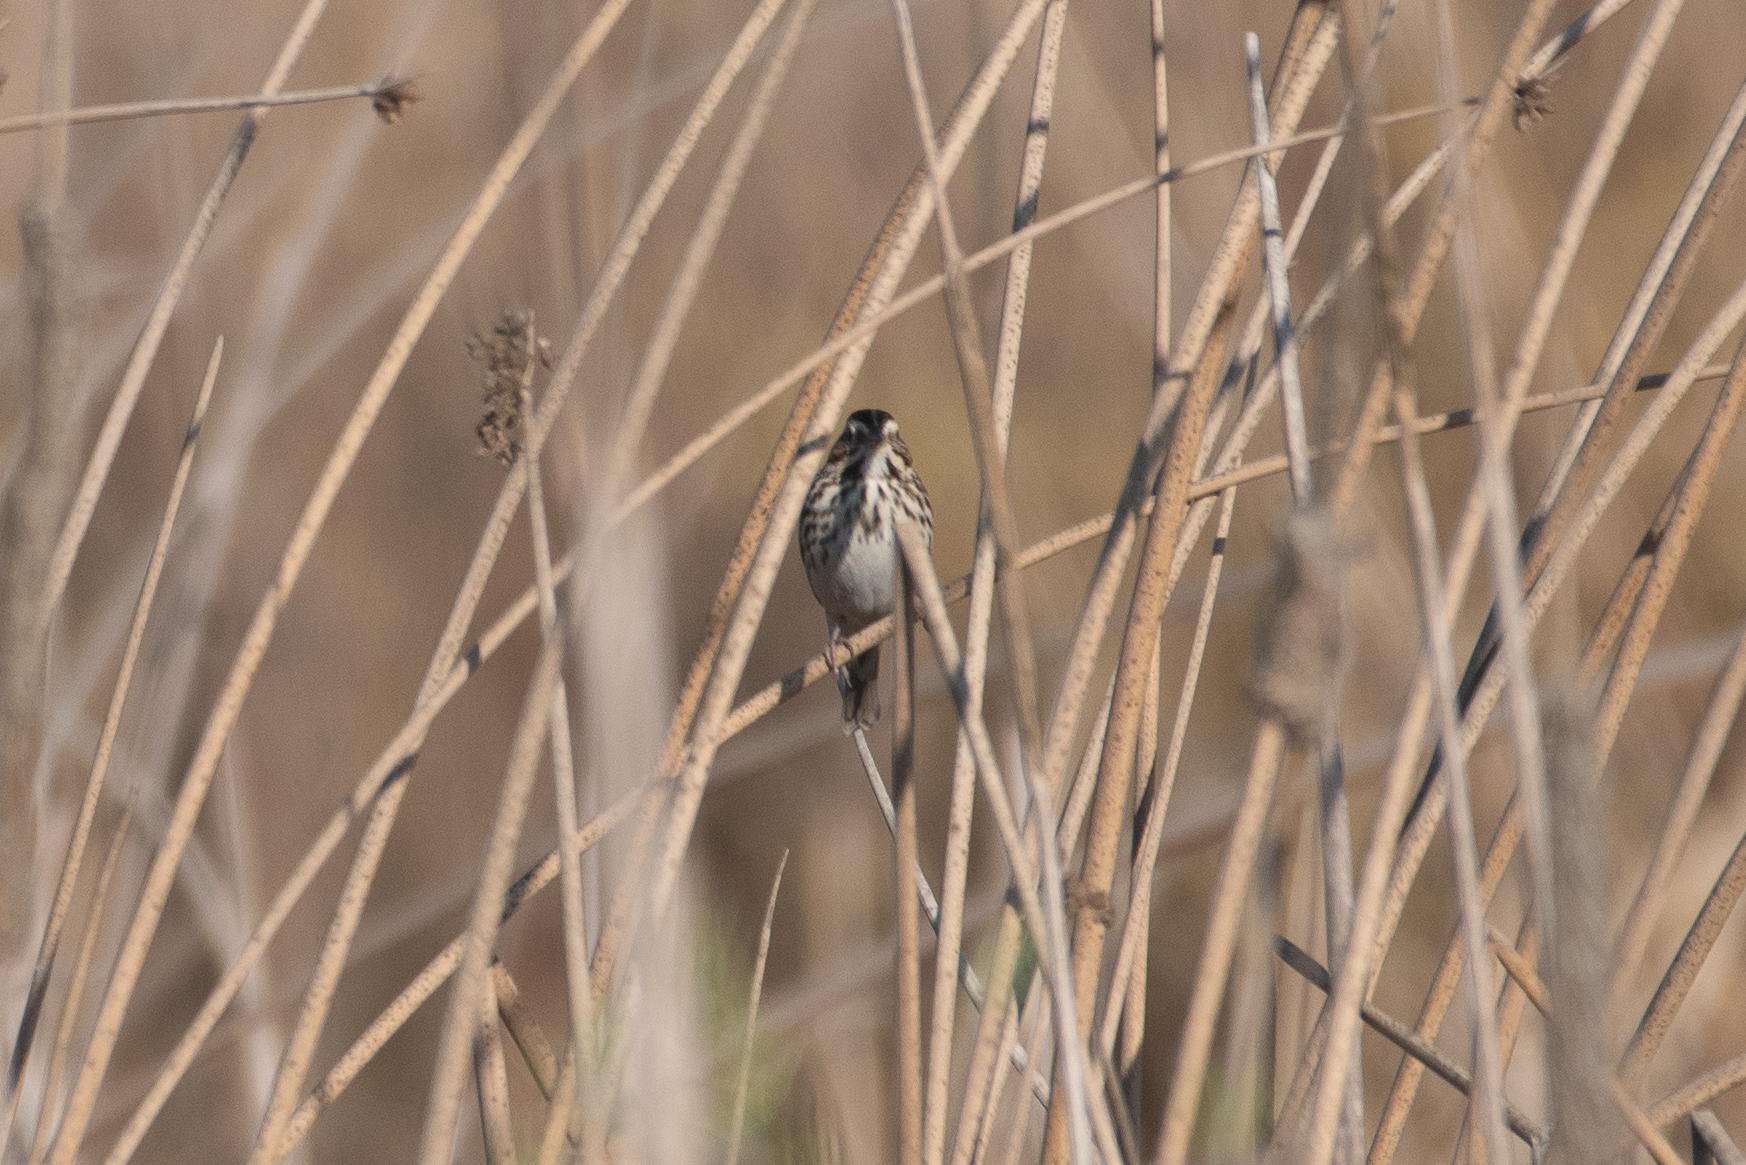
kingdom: Animalia
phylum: Chordata
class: Aves
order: Passeriformes
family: Passerellidae
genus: Passerculus
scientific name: Passerculus sandwichensis
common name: Savannah sparrow
